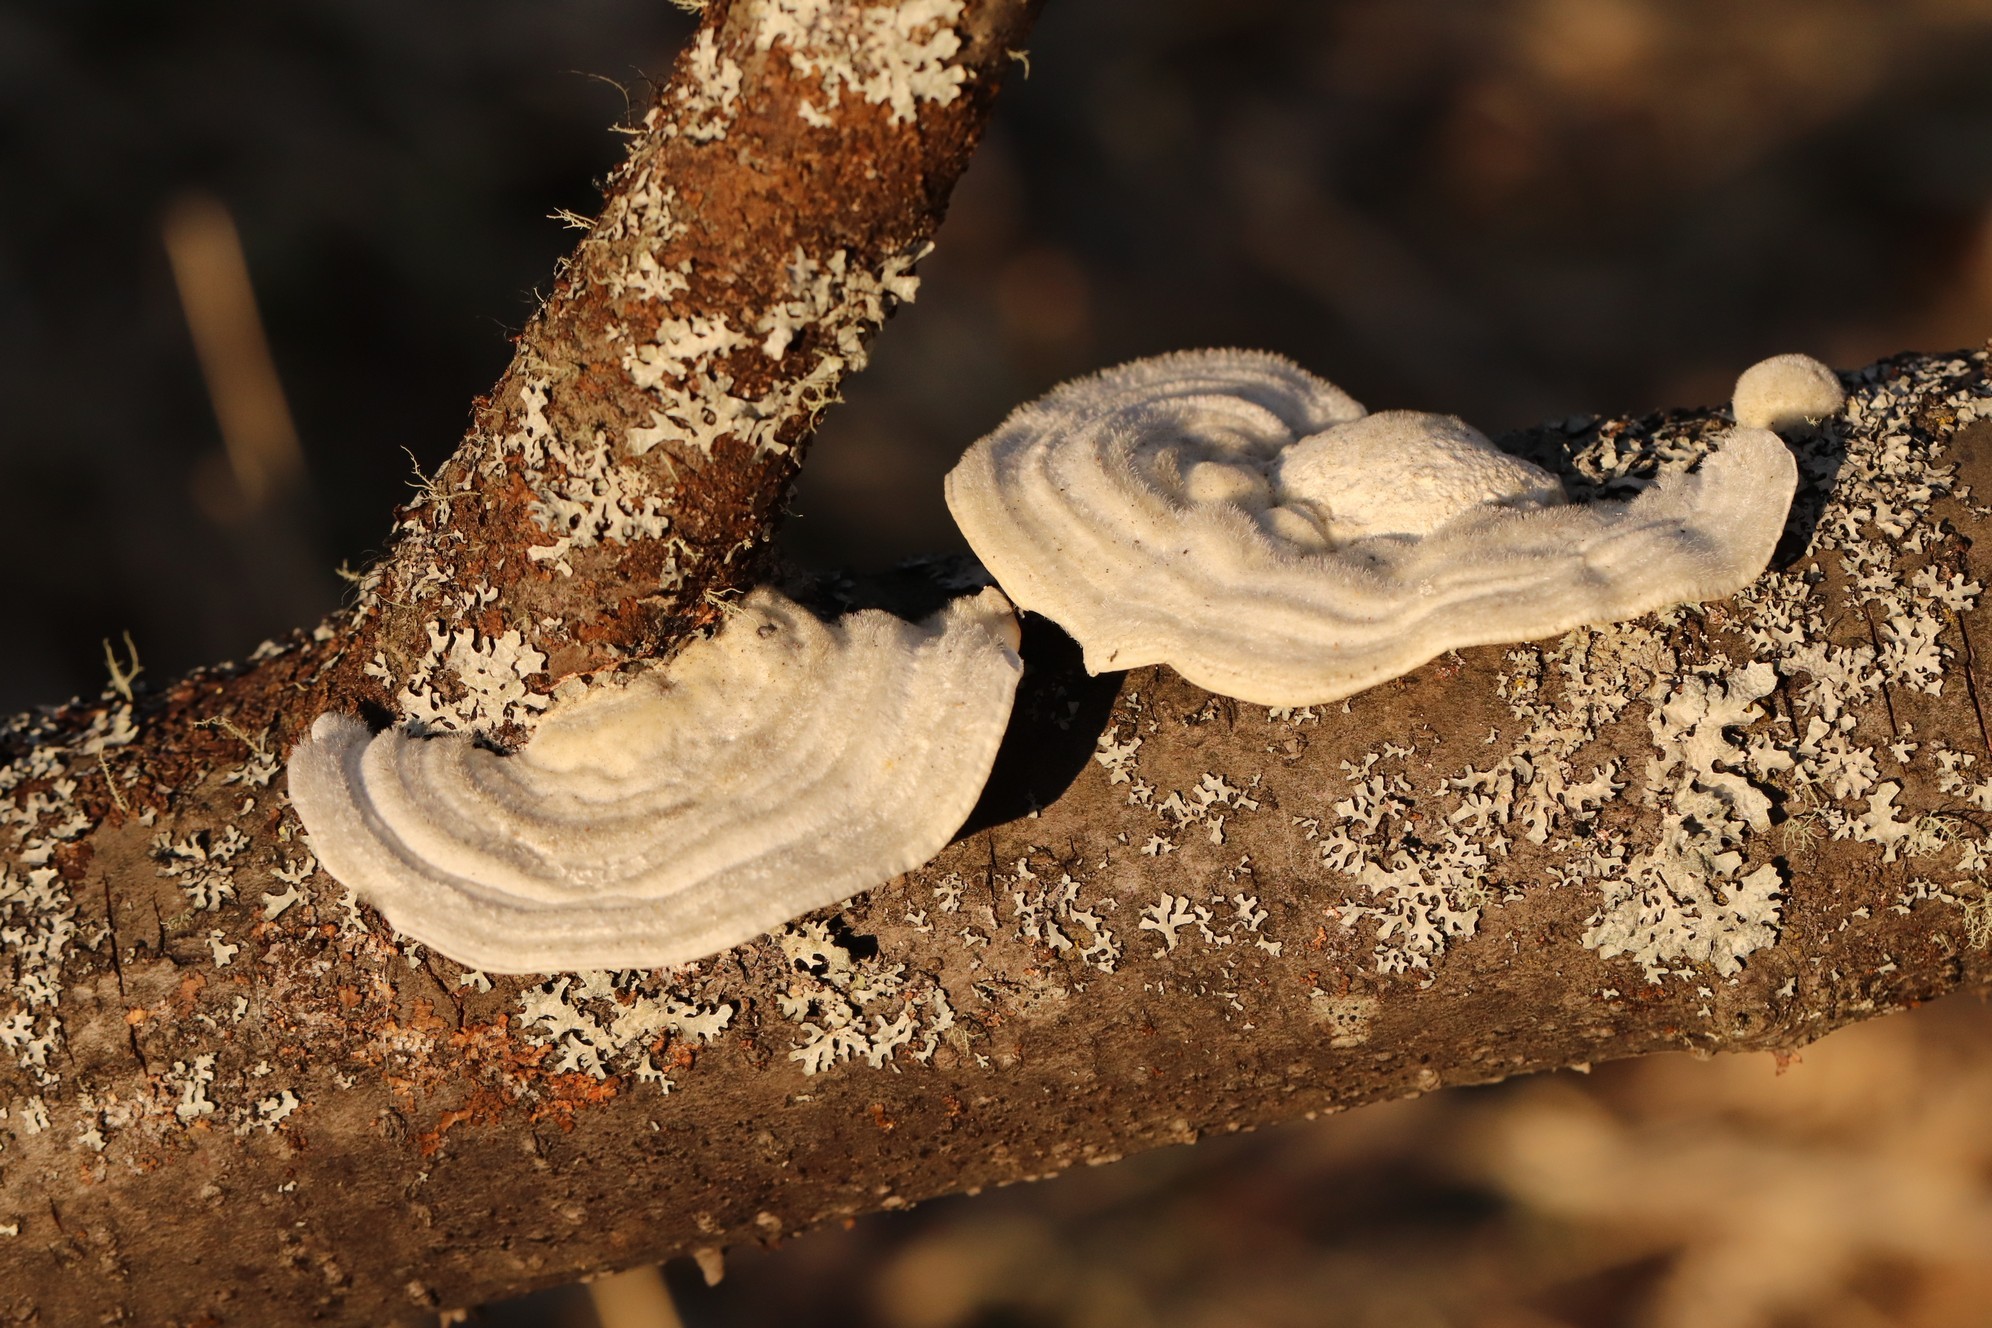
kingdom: Fungi
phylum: Basidiomycota
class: Agaricomycetes
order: Polyporales
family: Polyporaceae
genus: Trametes
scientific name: Trametes pubescens
